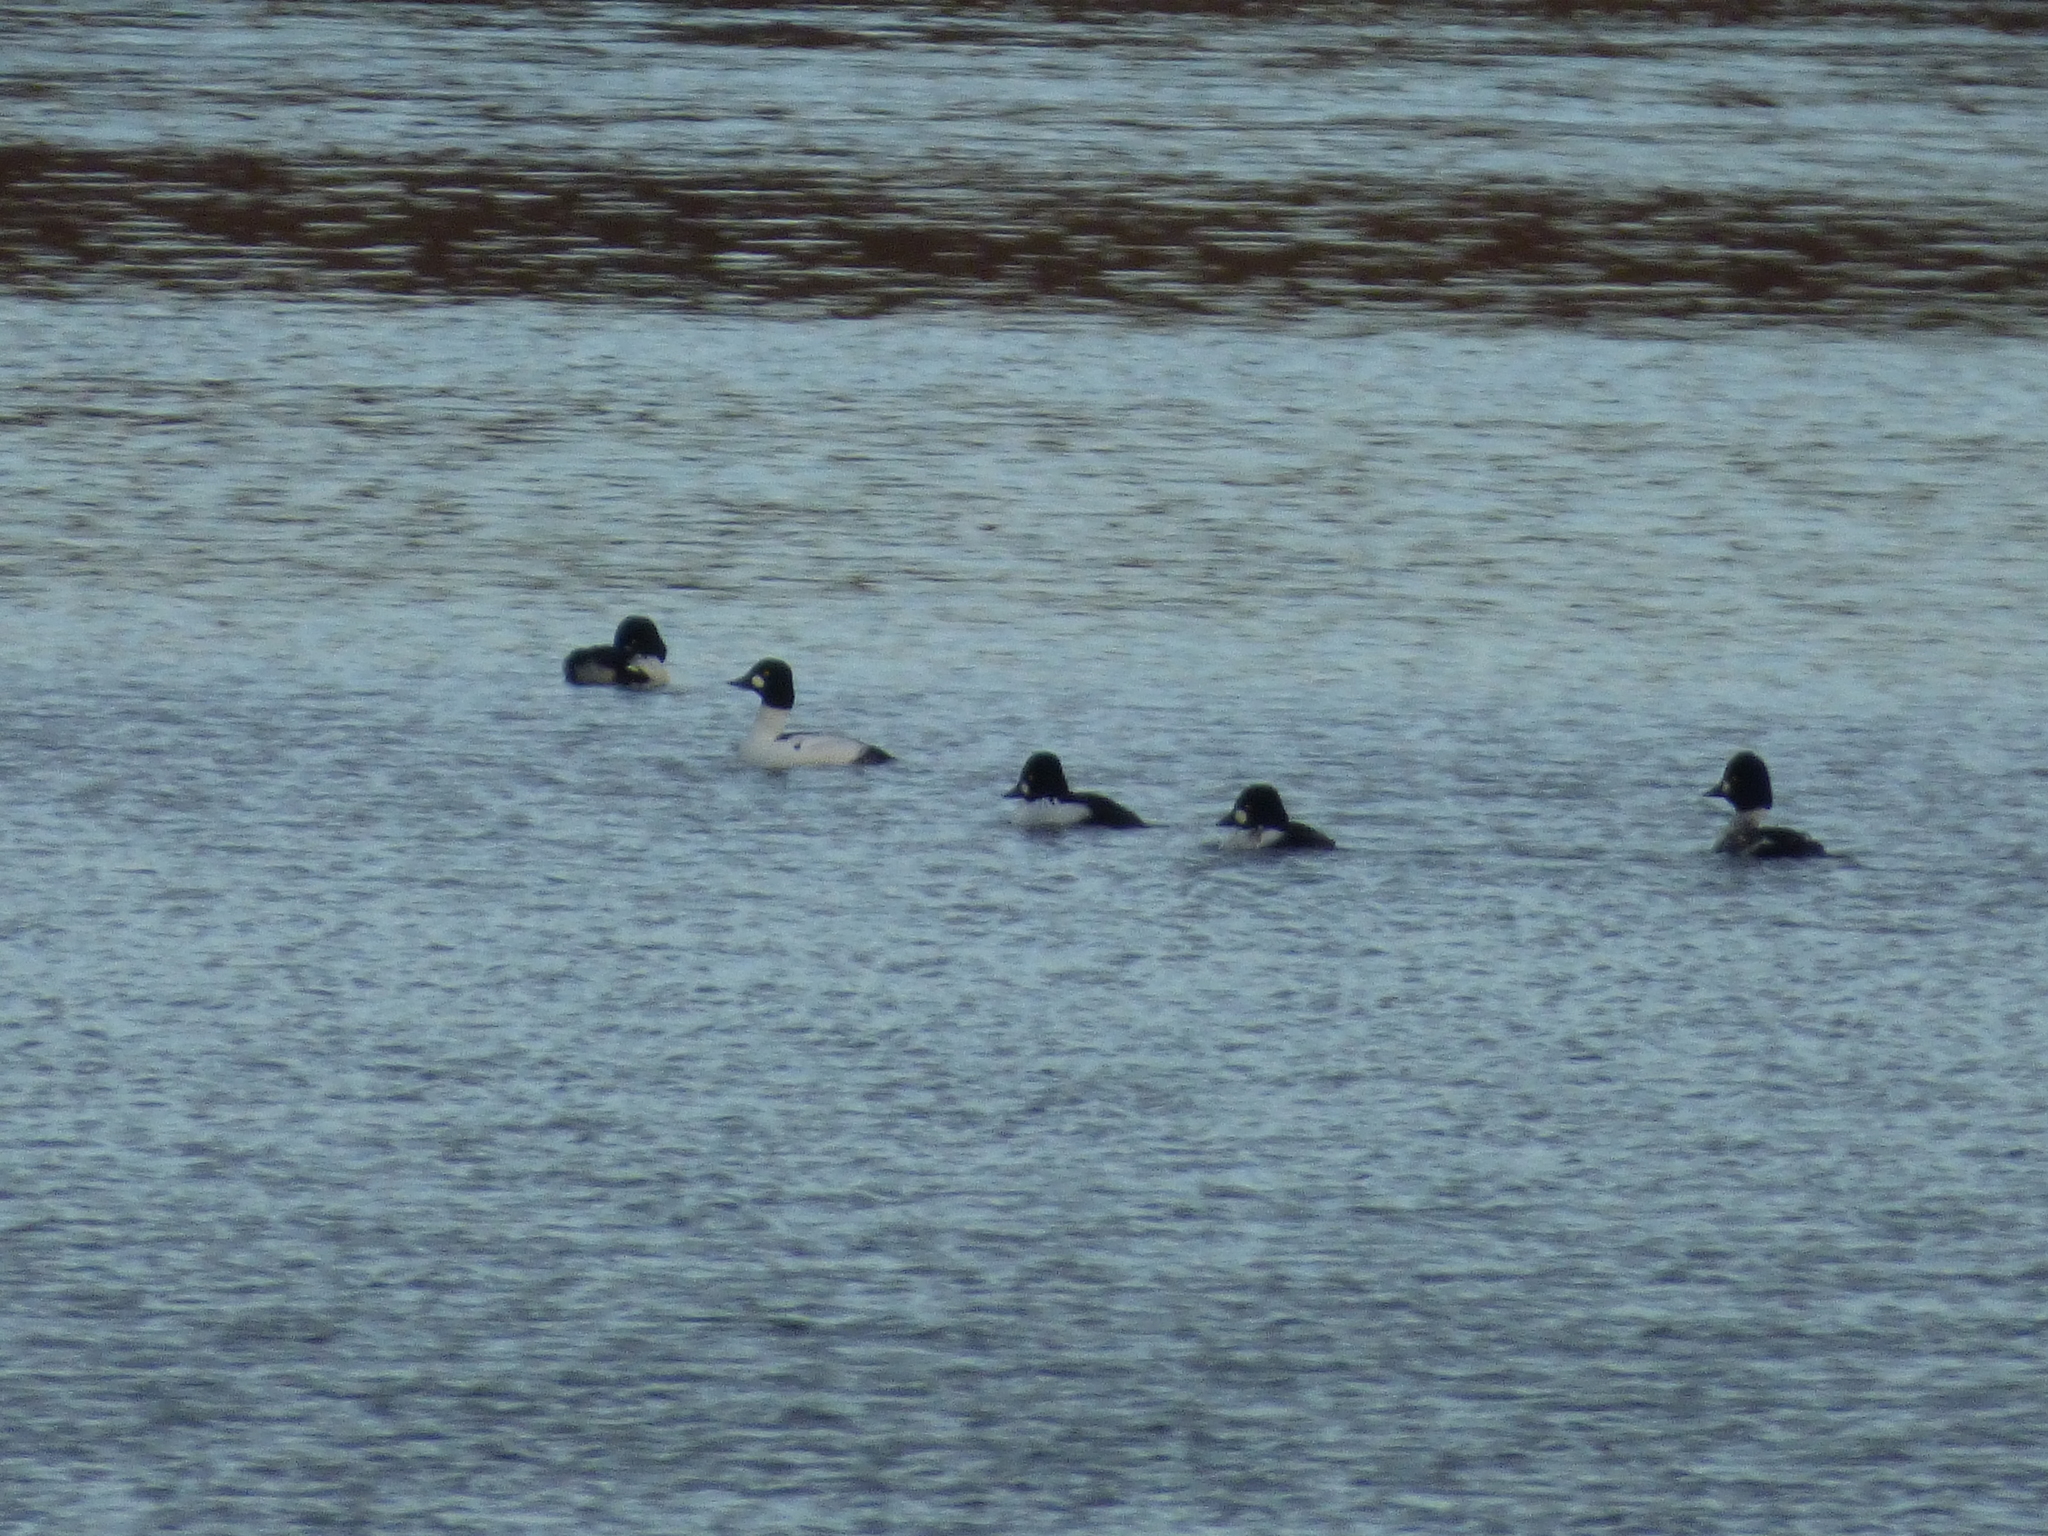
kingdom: Animalia
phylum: Chordata
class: Aves
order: Anseriformes
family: Anatidae
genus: Bucephala
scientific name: Bucephala clangula
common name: Common goldeneye
